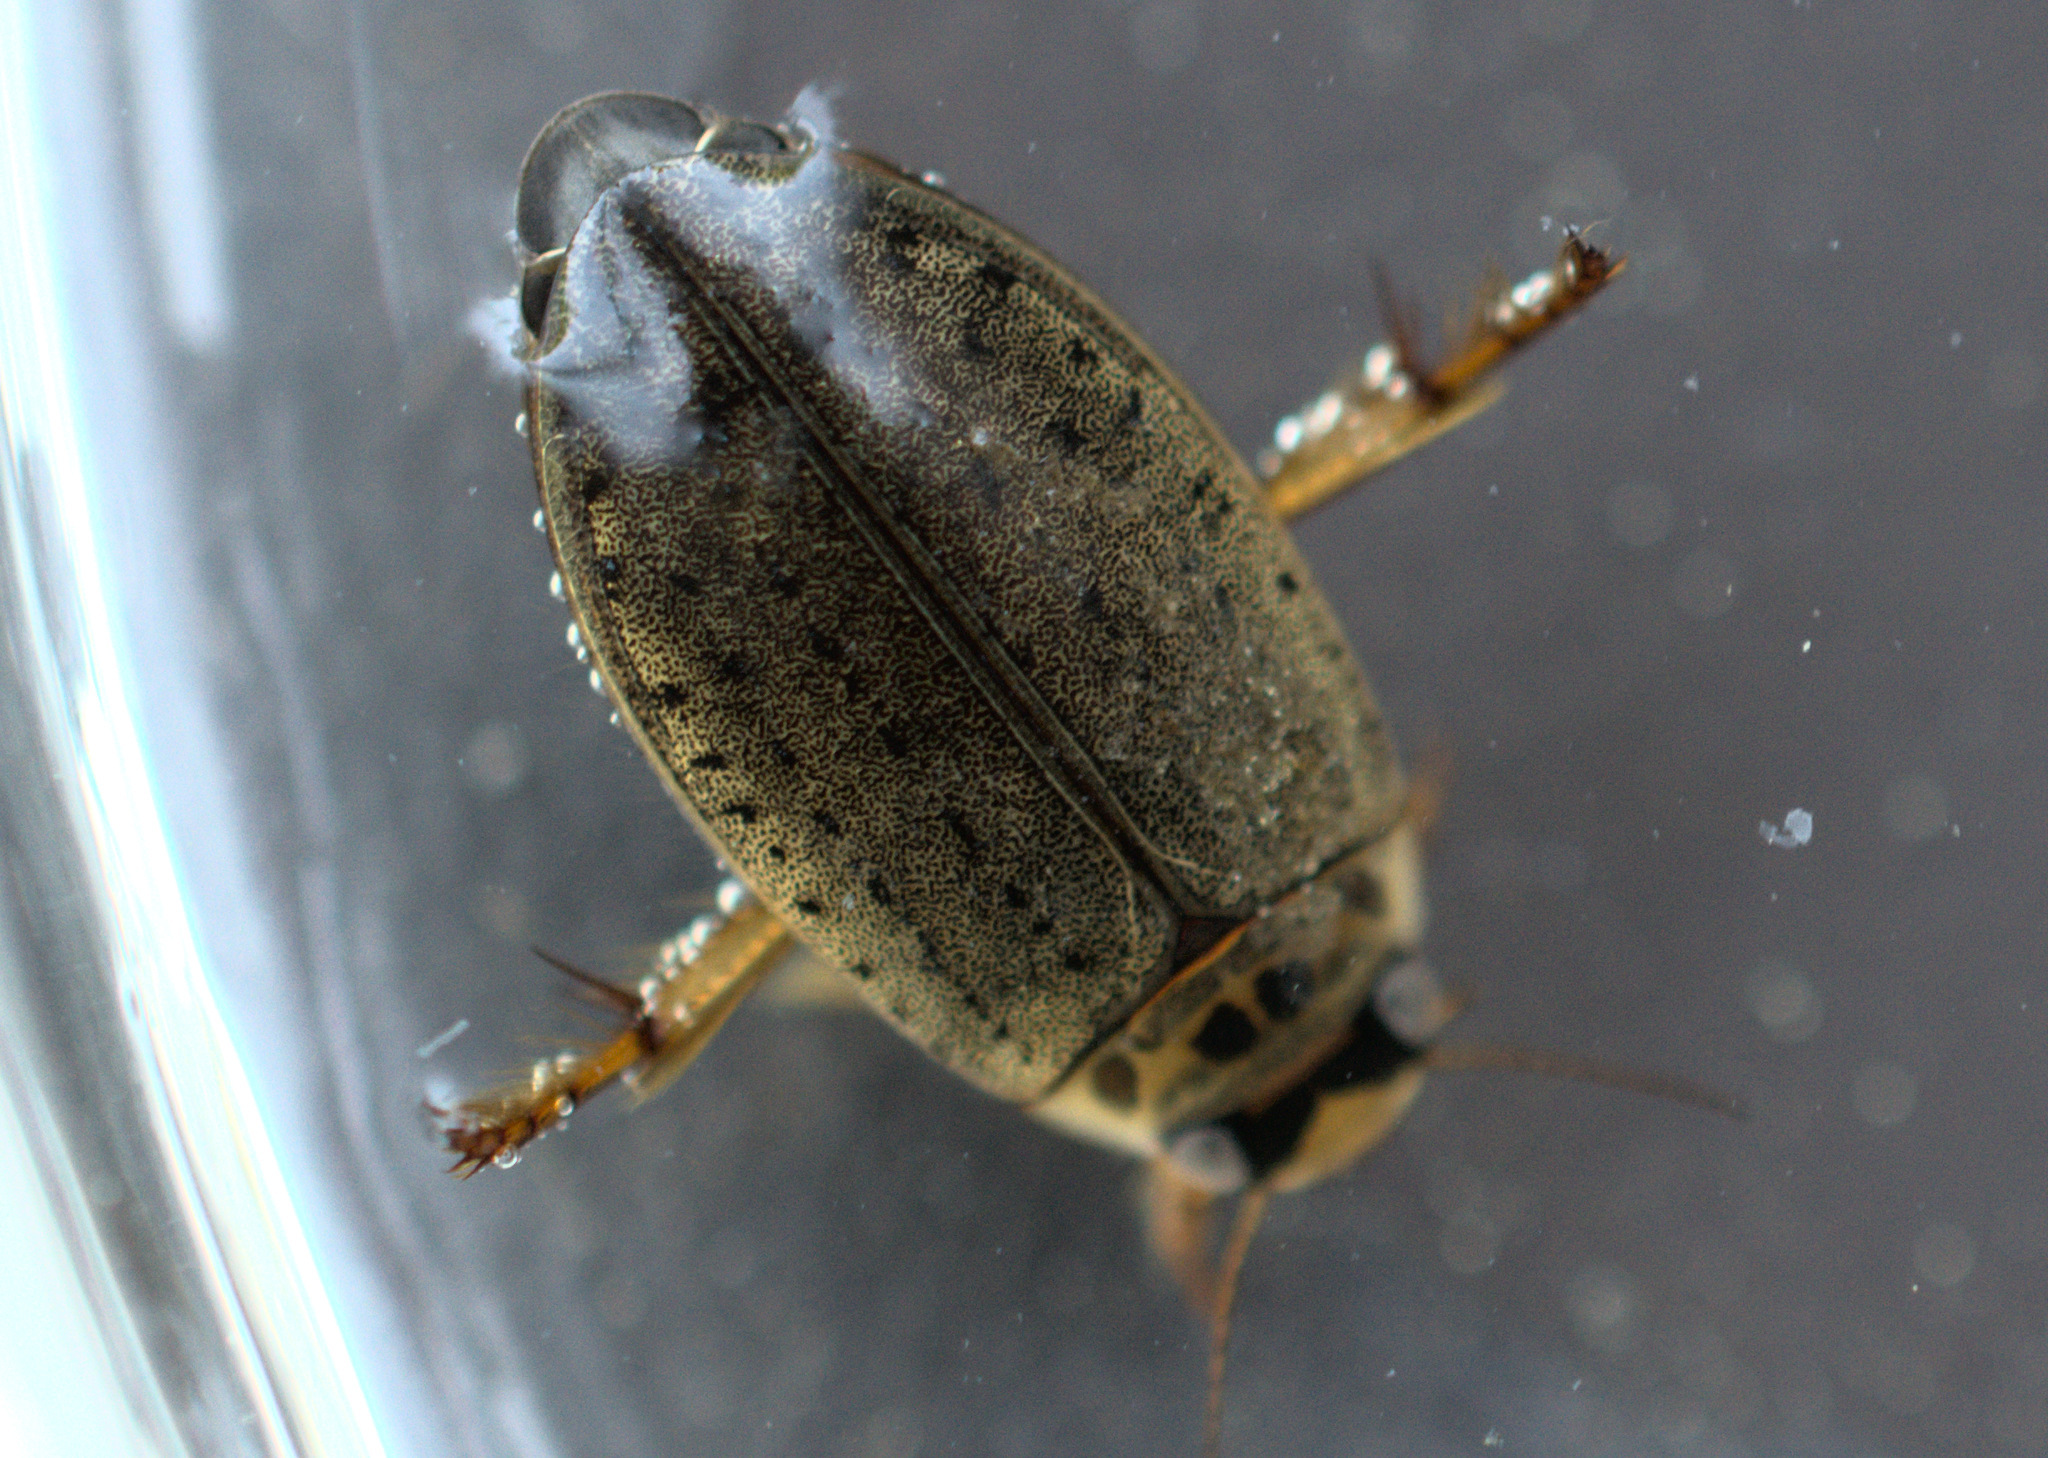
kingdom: Animalia
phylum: Arthropoda
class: Insecta
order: Coleoptera
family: Dytiscidae
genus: Rhantus
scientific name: Rhantus gutticollis
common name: Predaceous diving beetle
